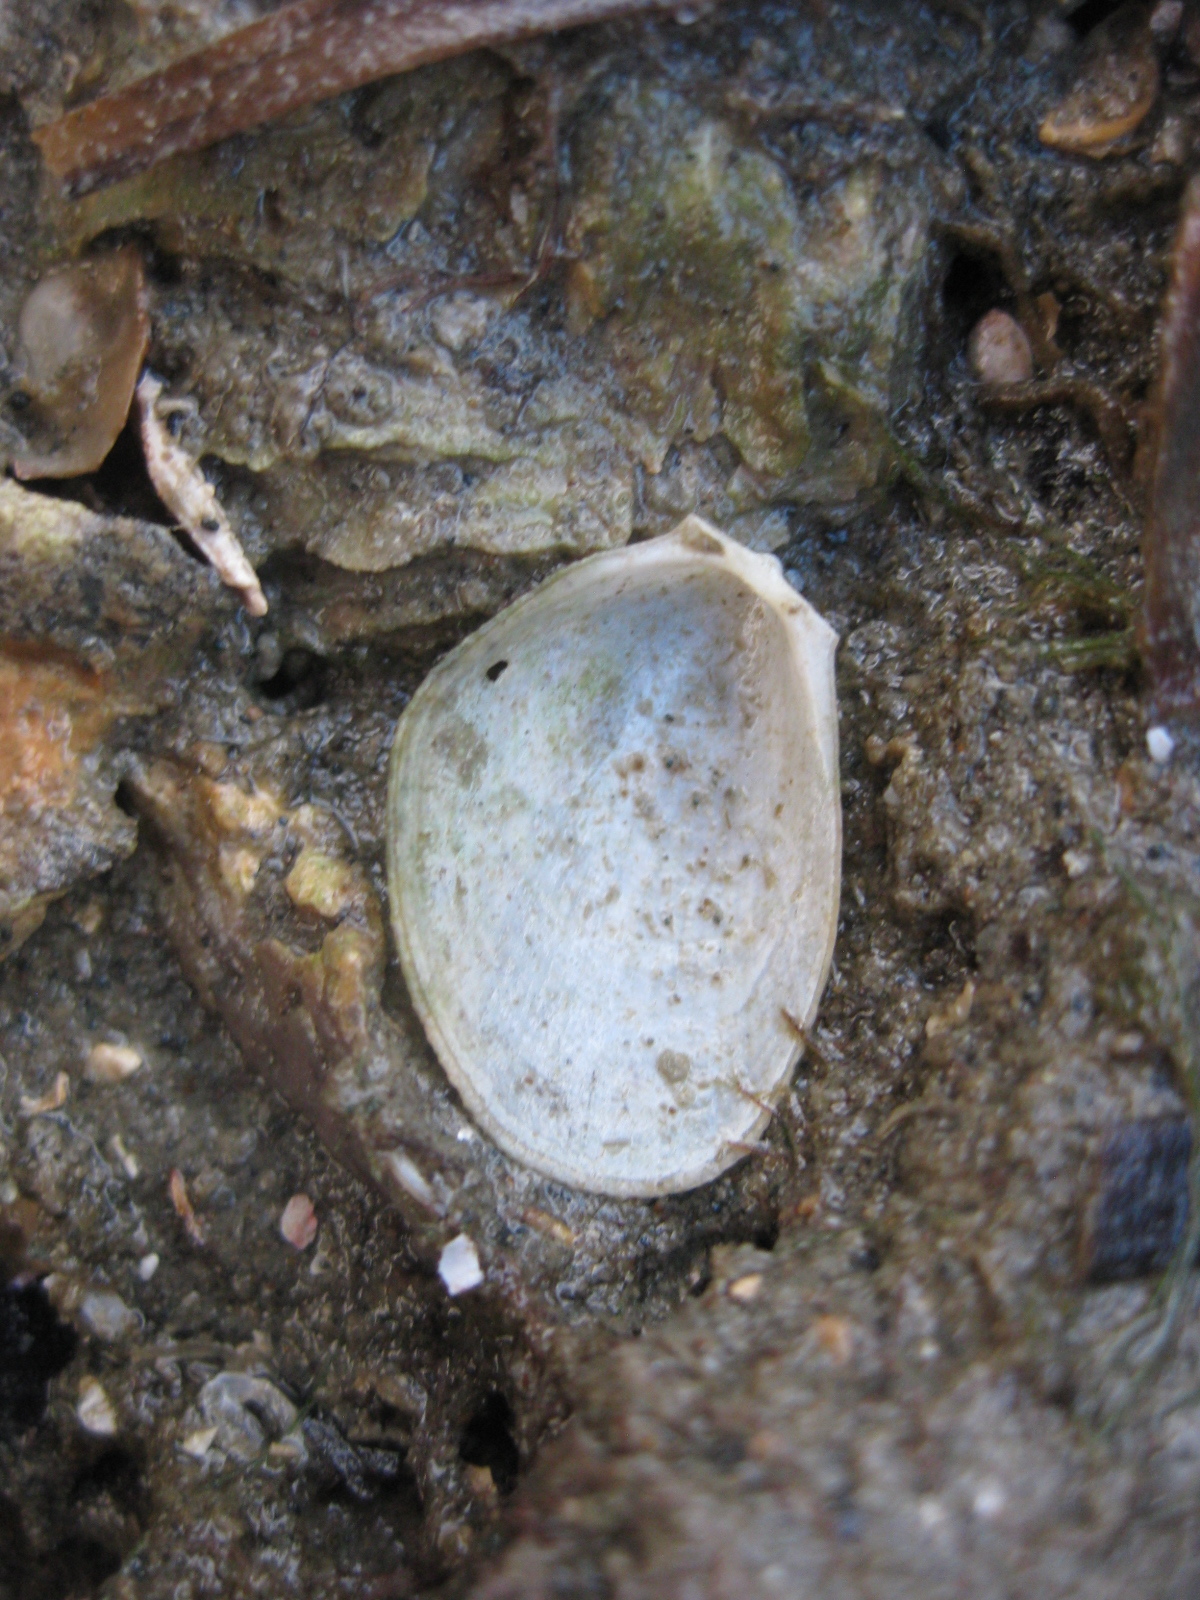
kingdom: Animalia
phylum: Mollusca
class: Bivalvia
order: Limida
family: Limidae
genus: Limaria
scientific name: Limaria orientalis
